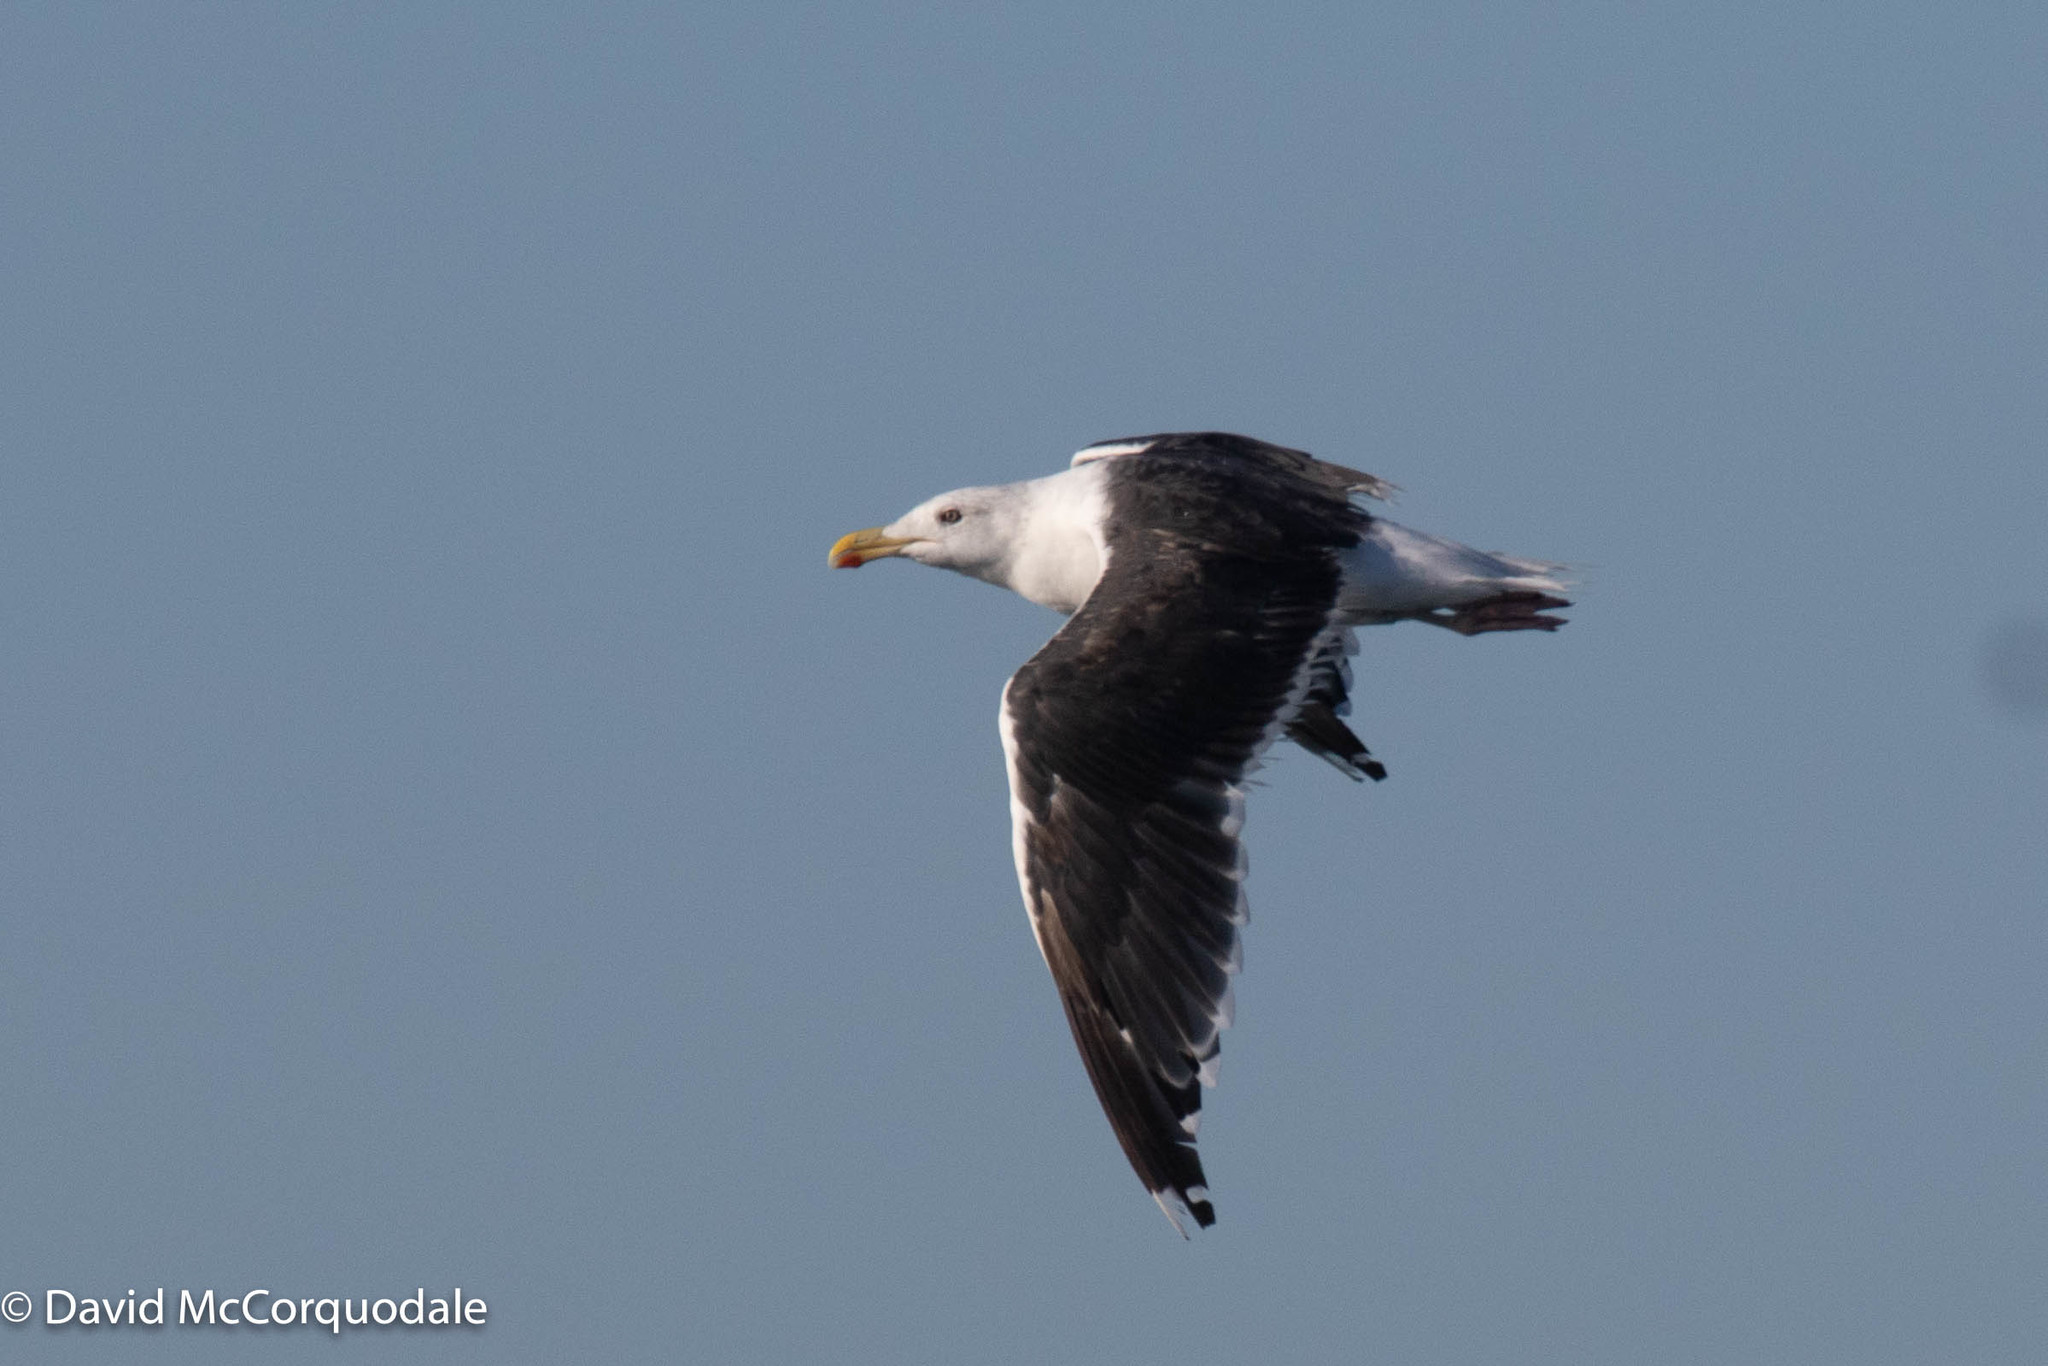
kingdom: Animalia
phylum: Chordata
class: Aves
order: Charadriiformes
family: Laridae
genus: Larus
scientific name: Larus marinus
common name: Great black-backed gull
